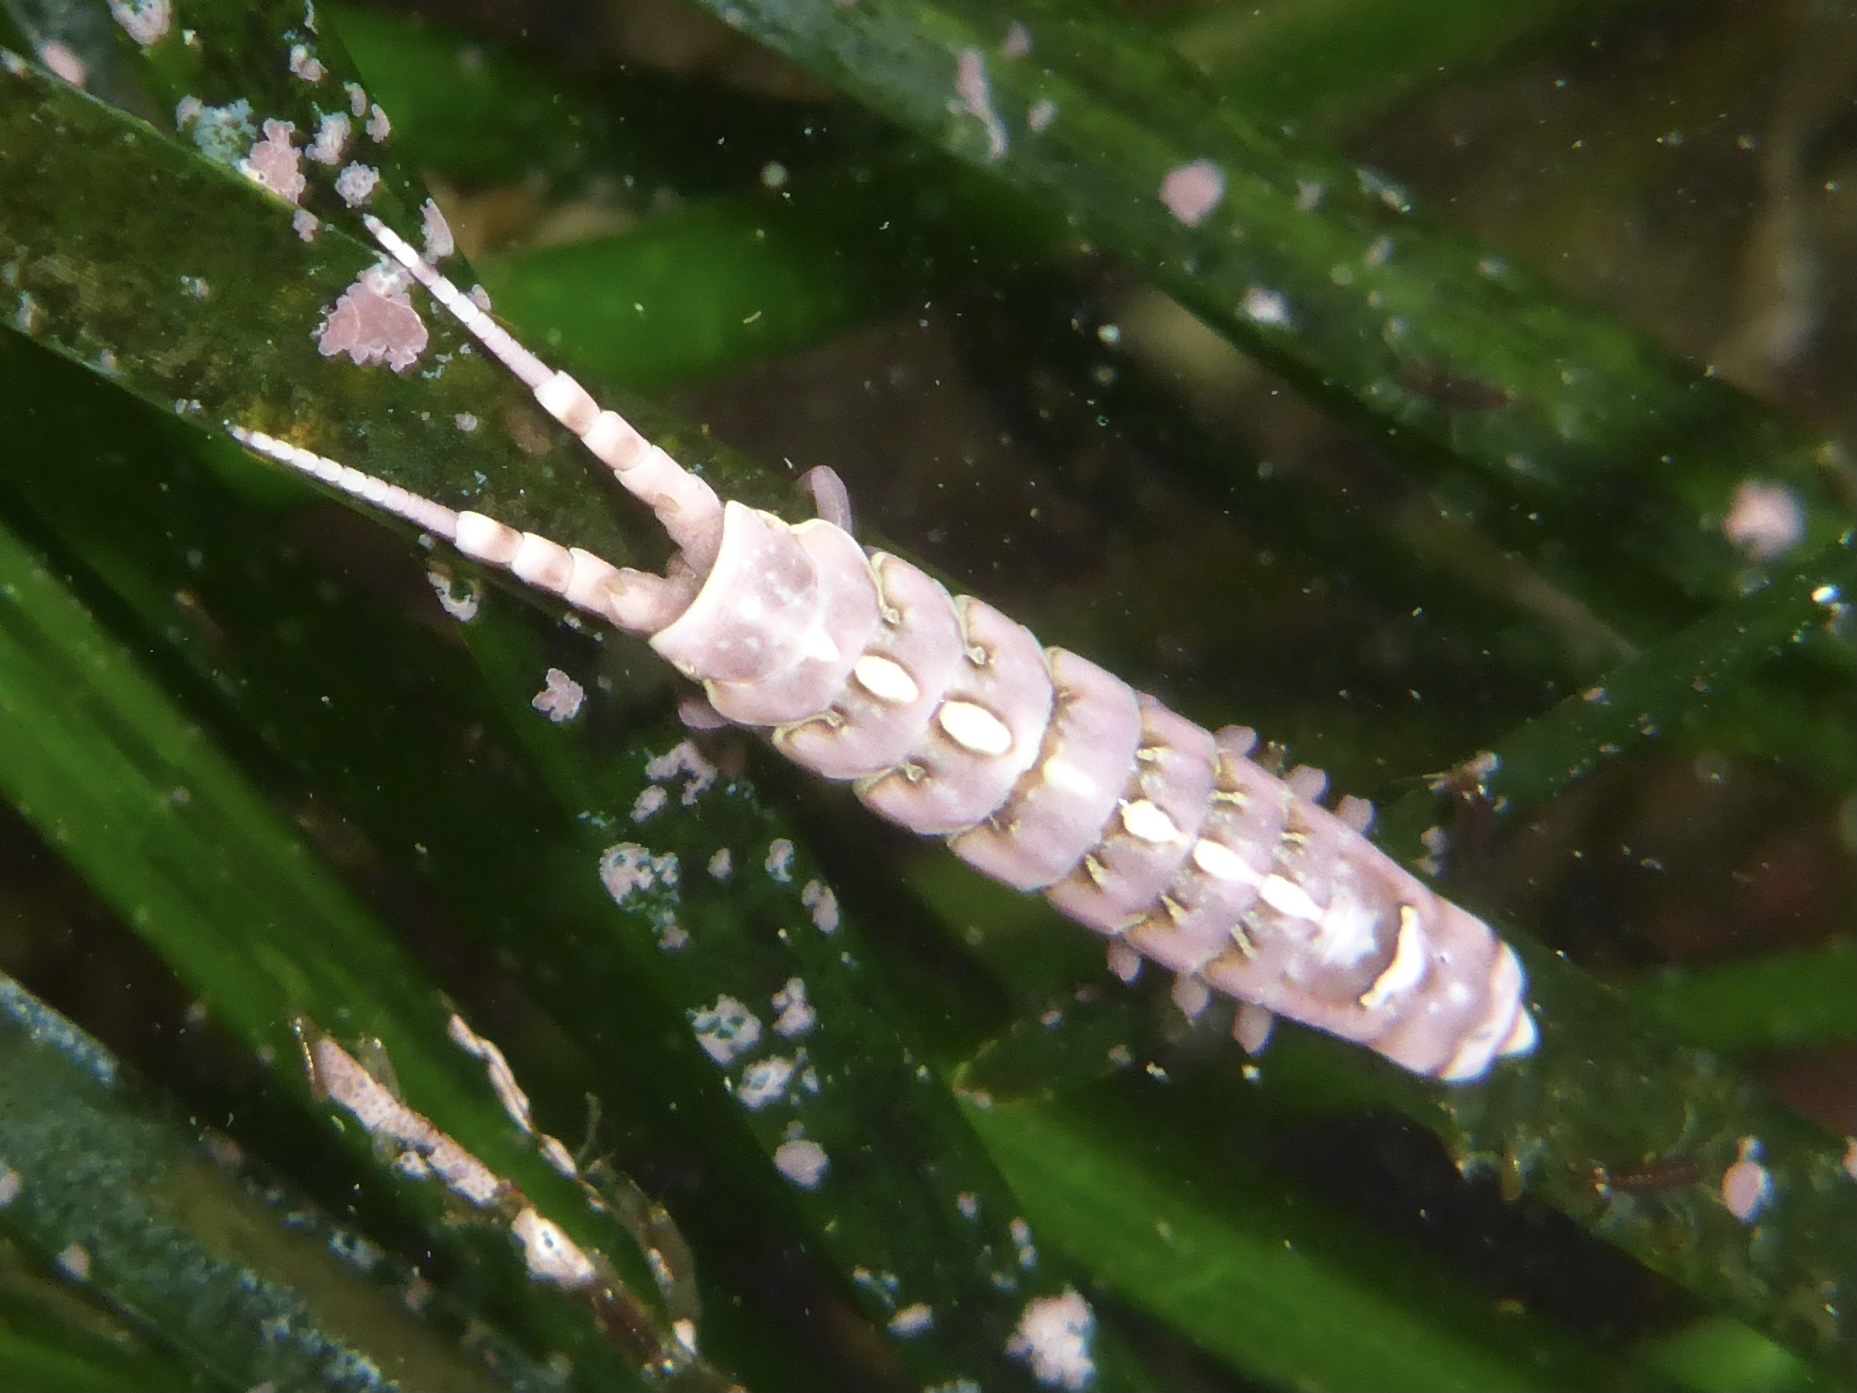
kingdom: Animalia
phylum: Arthropoda
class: Malacostraca
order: Isopoda
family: Idoteidae
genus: Pentidotea
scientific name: Pentidotea aculeata
